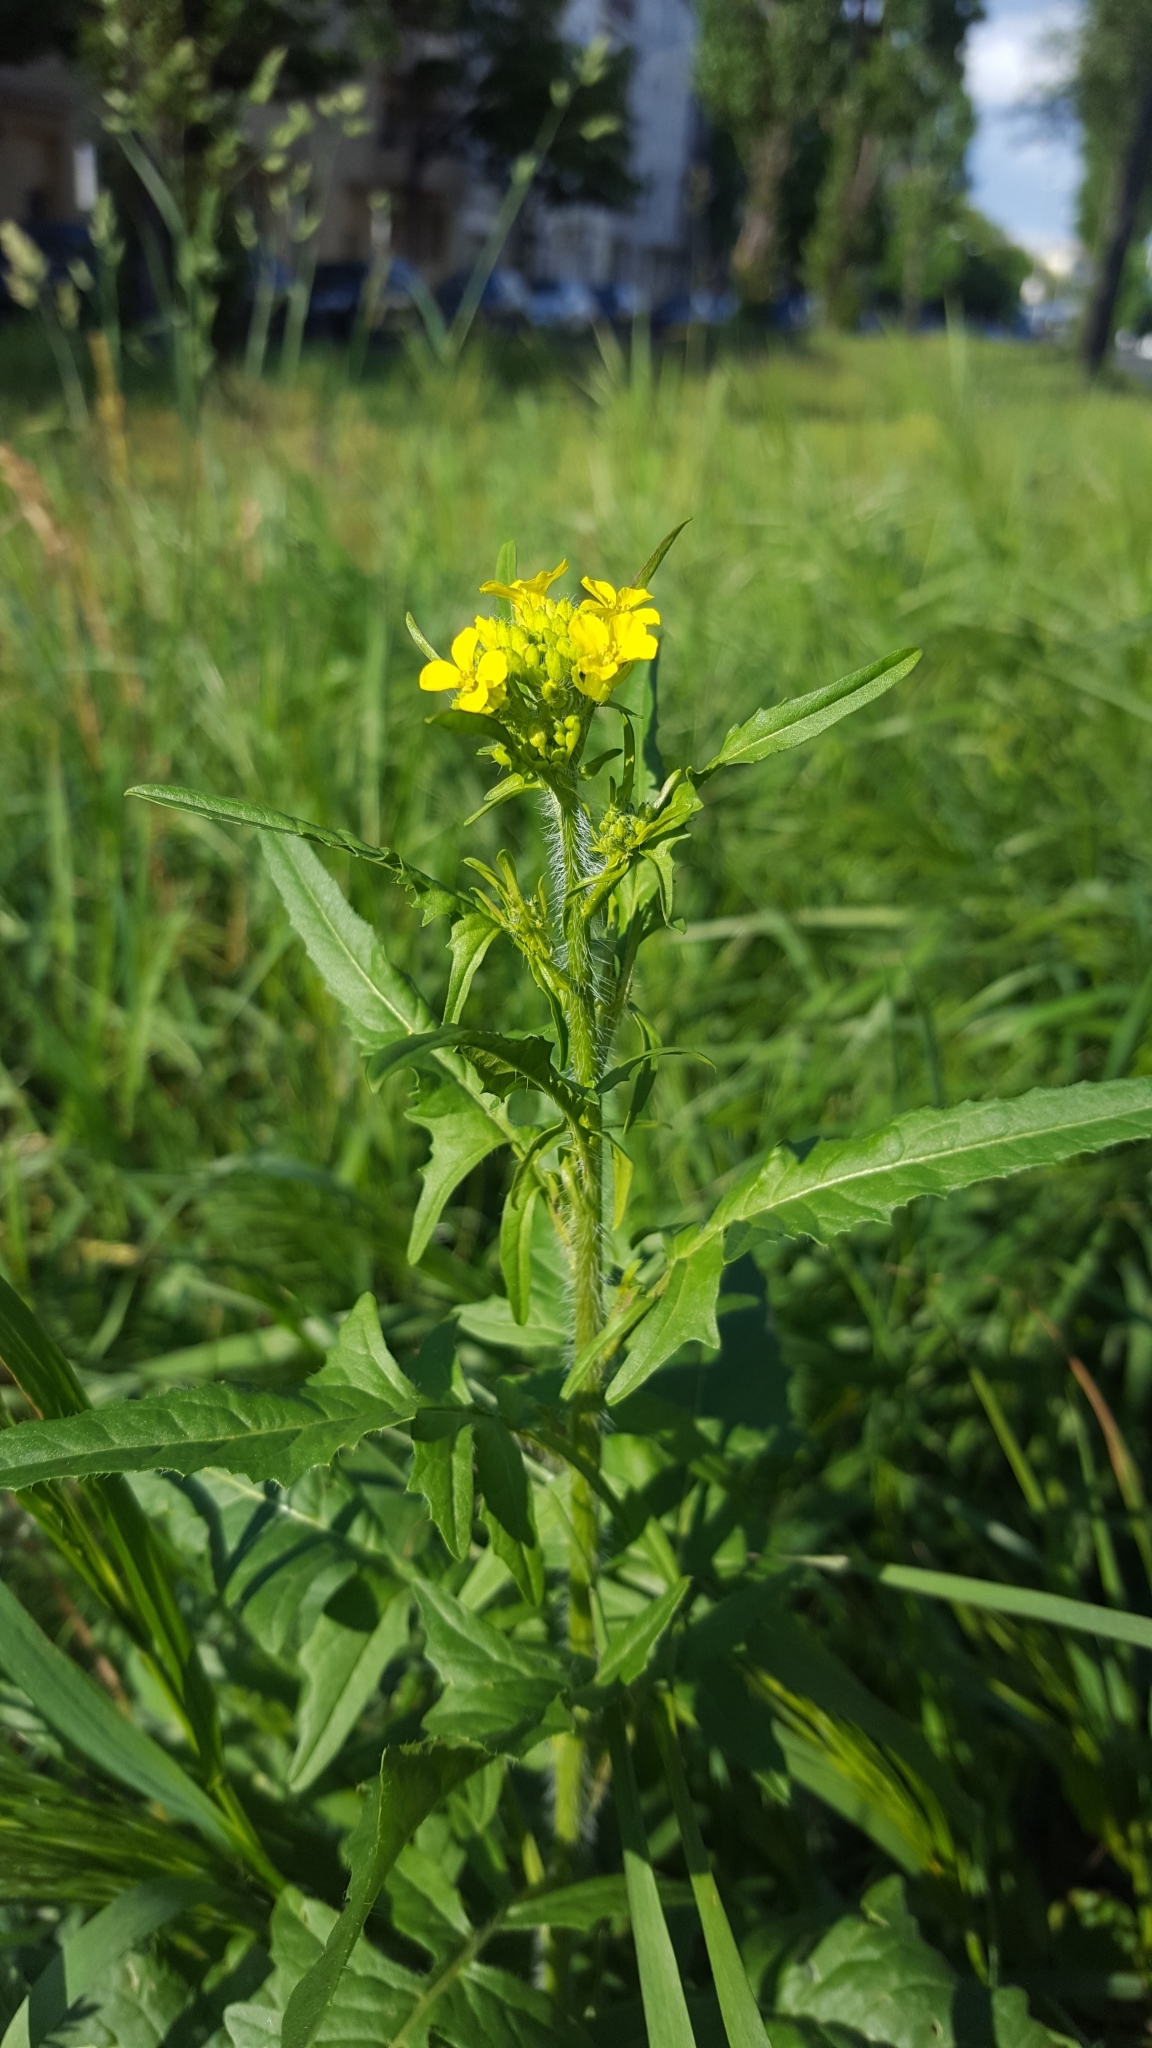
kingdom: Plantae
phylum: Tracheophyta
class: Magnoliopsida
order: Brassicales
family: Brassicaceae
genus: Sisymbrium
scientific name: Sisymbrium loeselii
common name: False london-rocket
